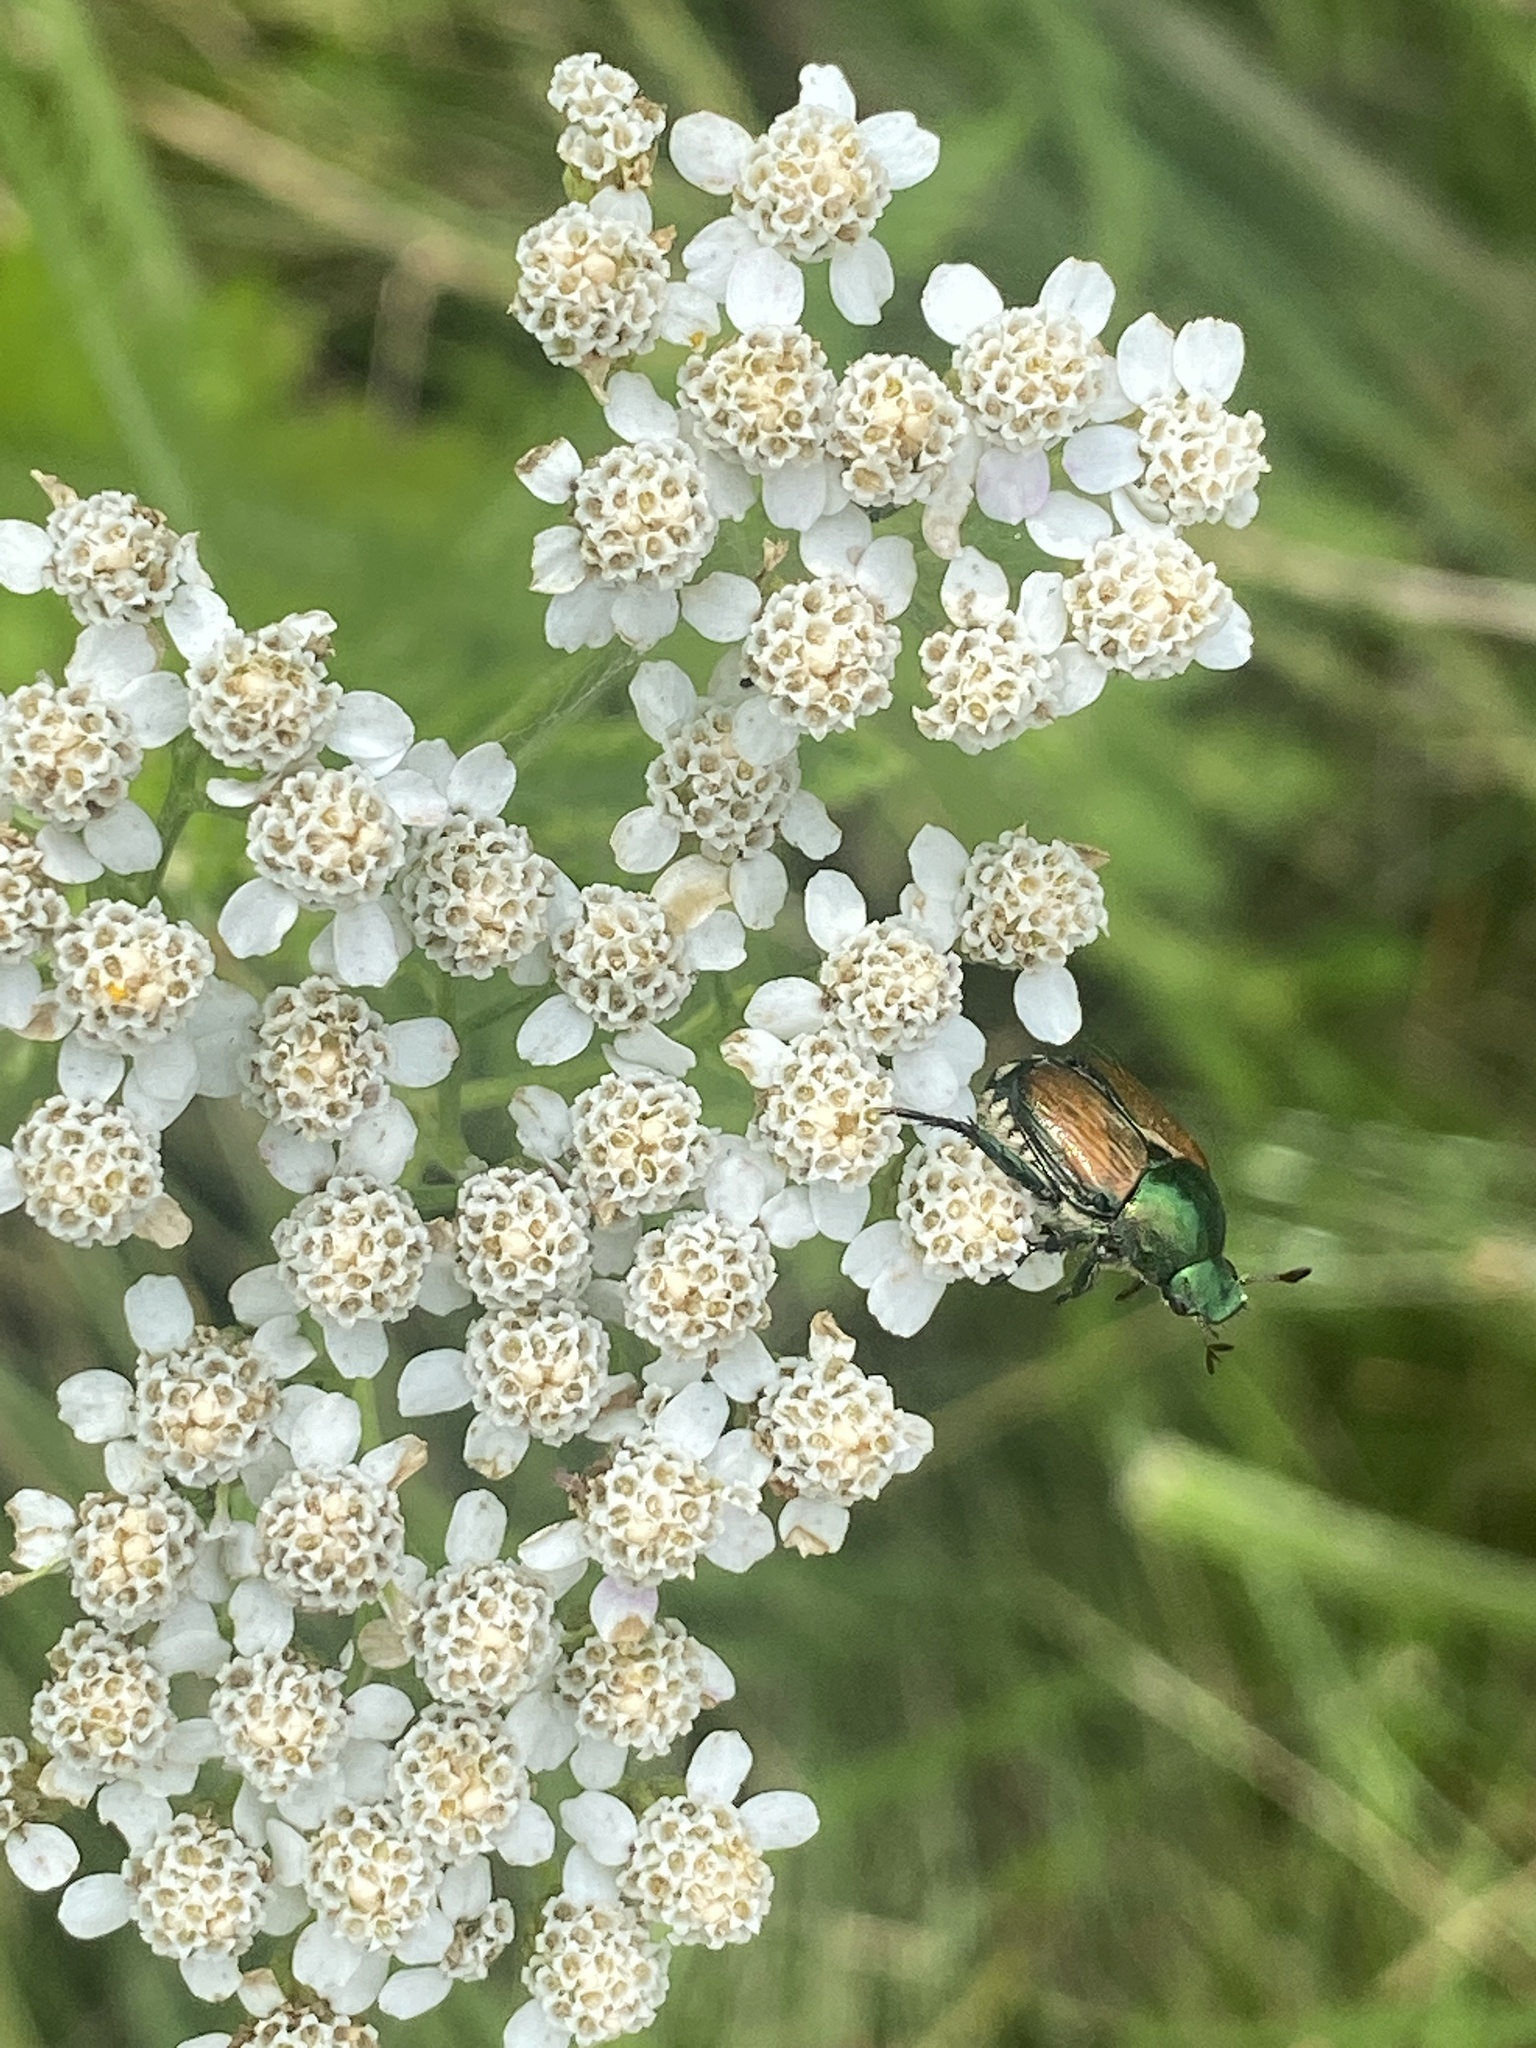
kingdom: Animalia
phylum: Arthropoda
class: Insecta
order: Coleoptera
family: Scarabaeidae
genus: Popillia
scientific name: Popillia japonica
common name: Japanese beetle
